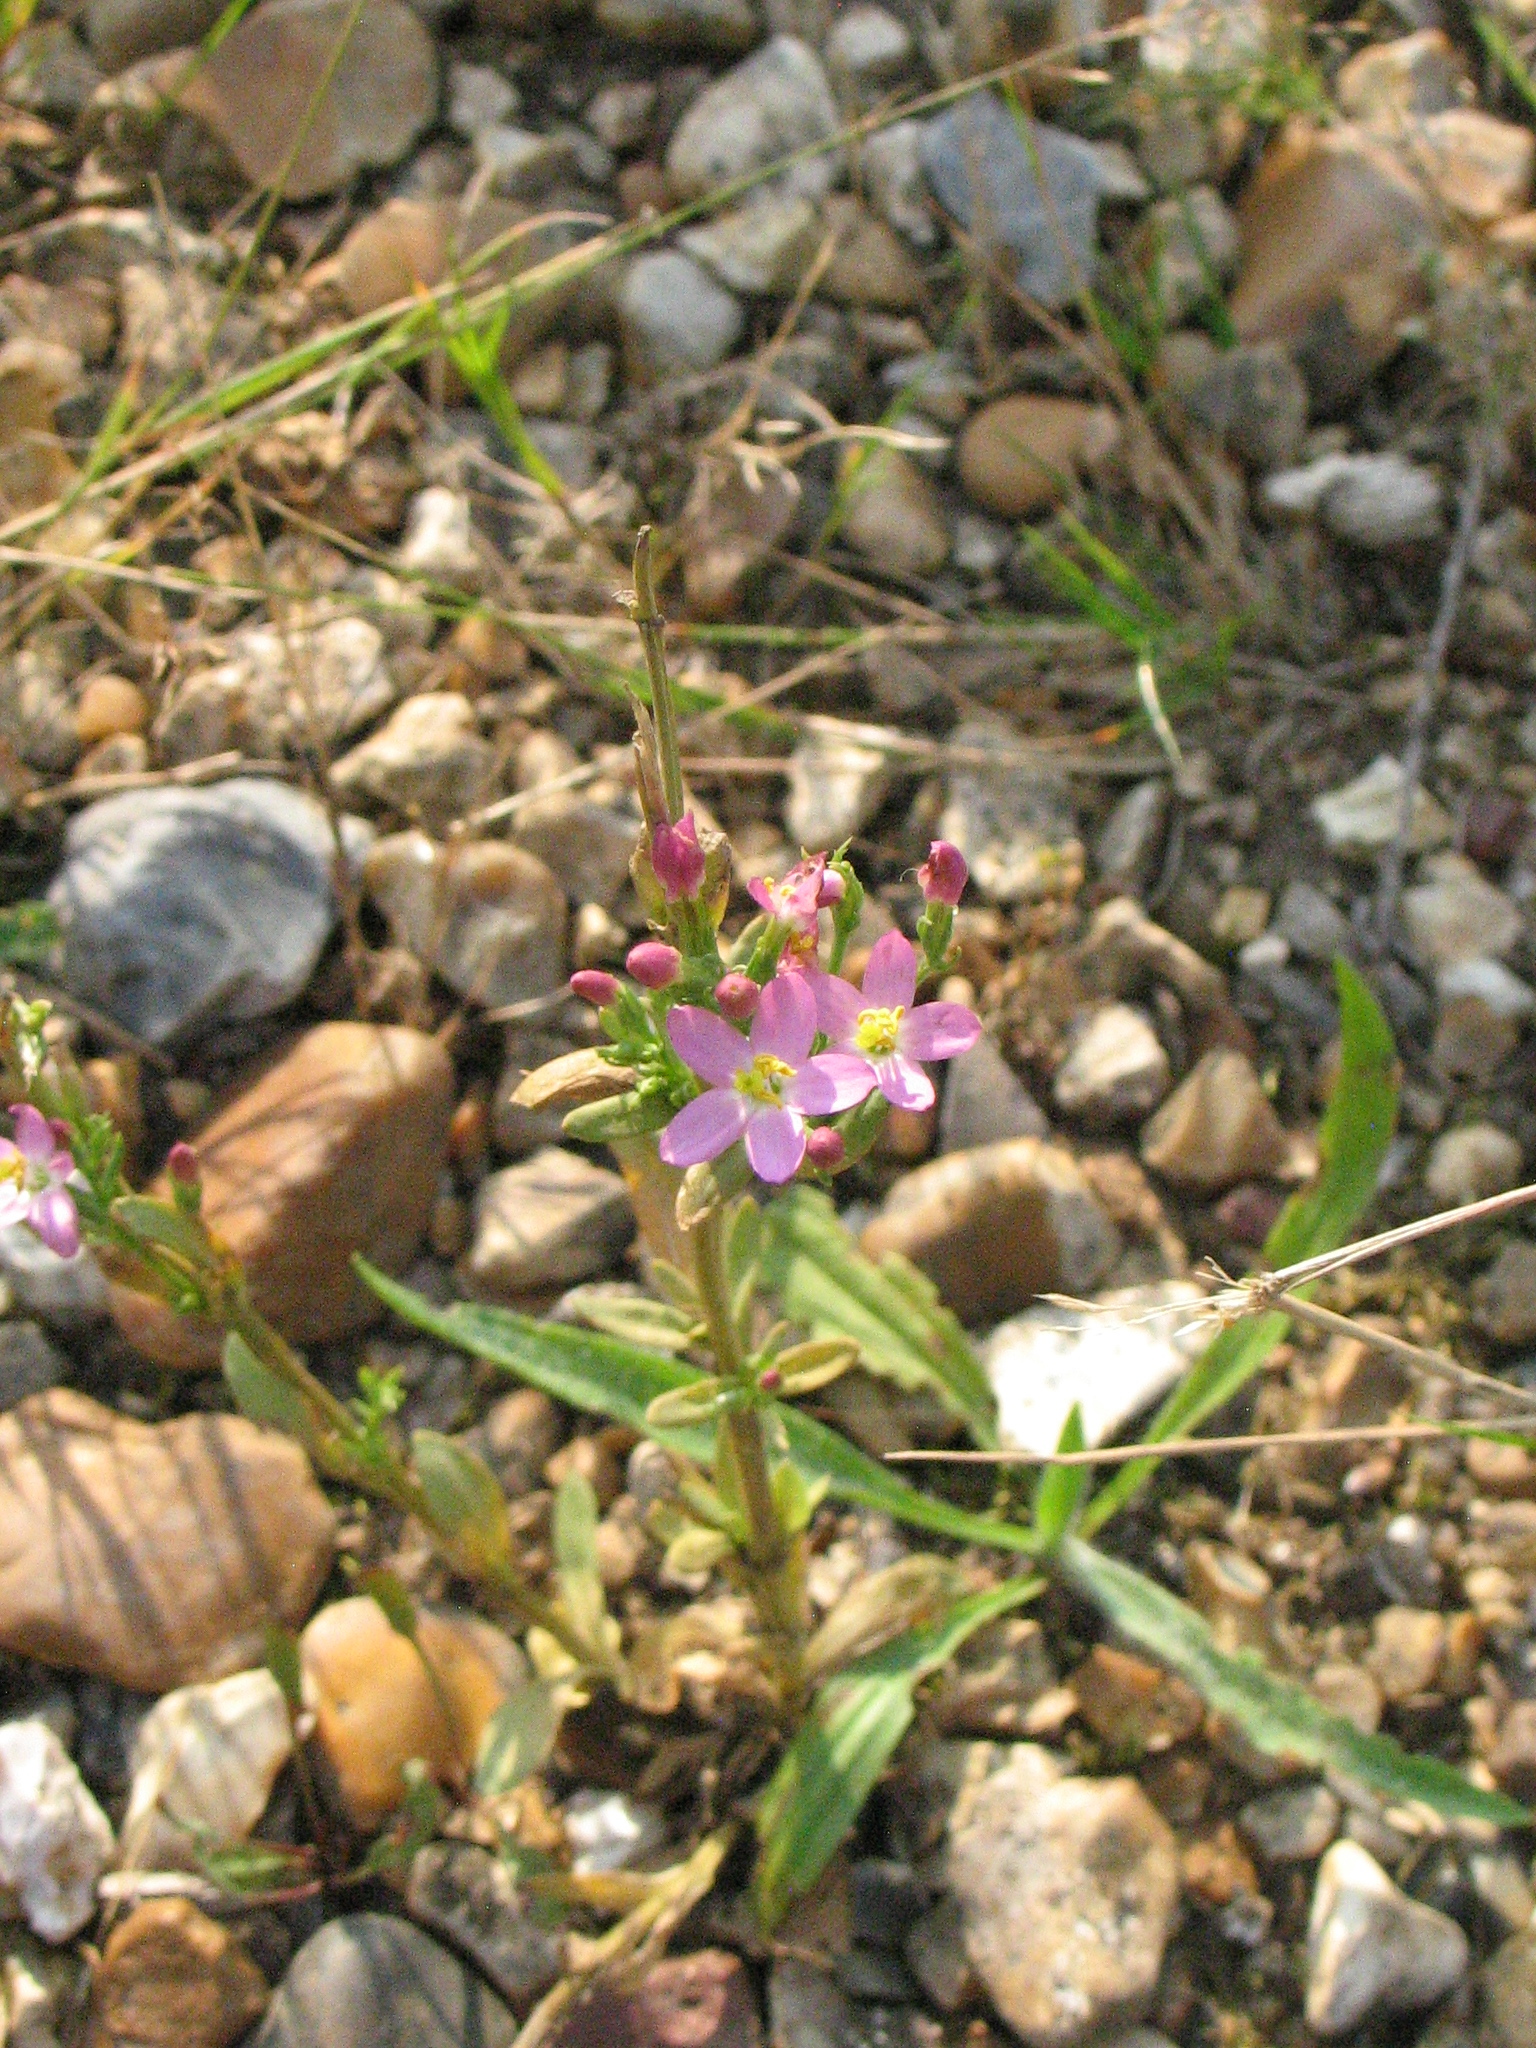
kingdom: Plantae
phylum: Tracheophyta
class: Magnoliopsida
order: Gentianales
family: Gentianaceae
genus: Centaurium
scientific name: Centaurium erythraea
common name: Common centaury
